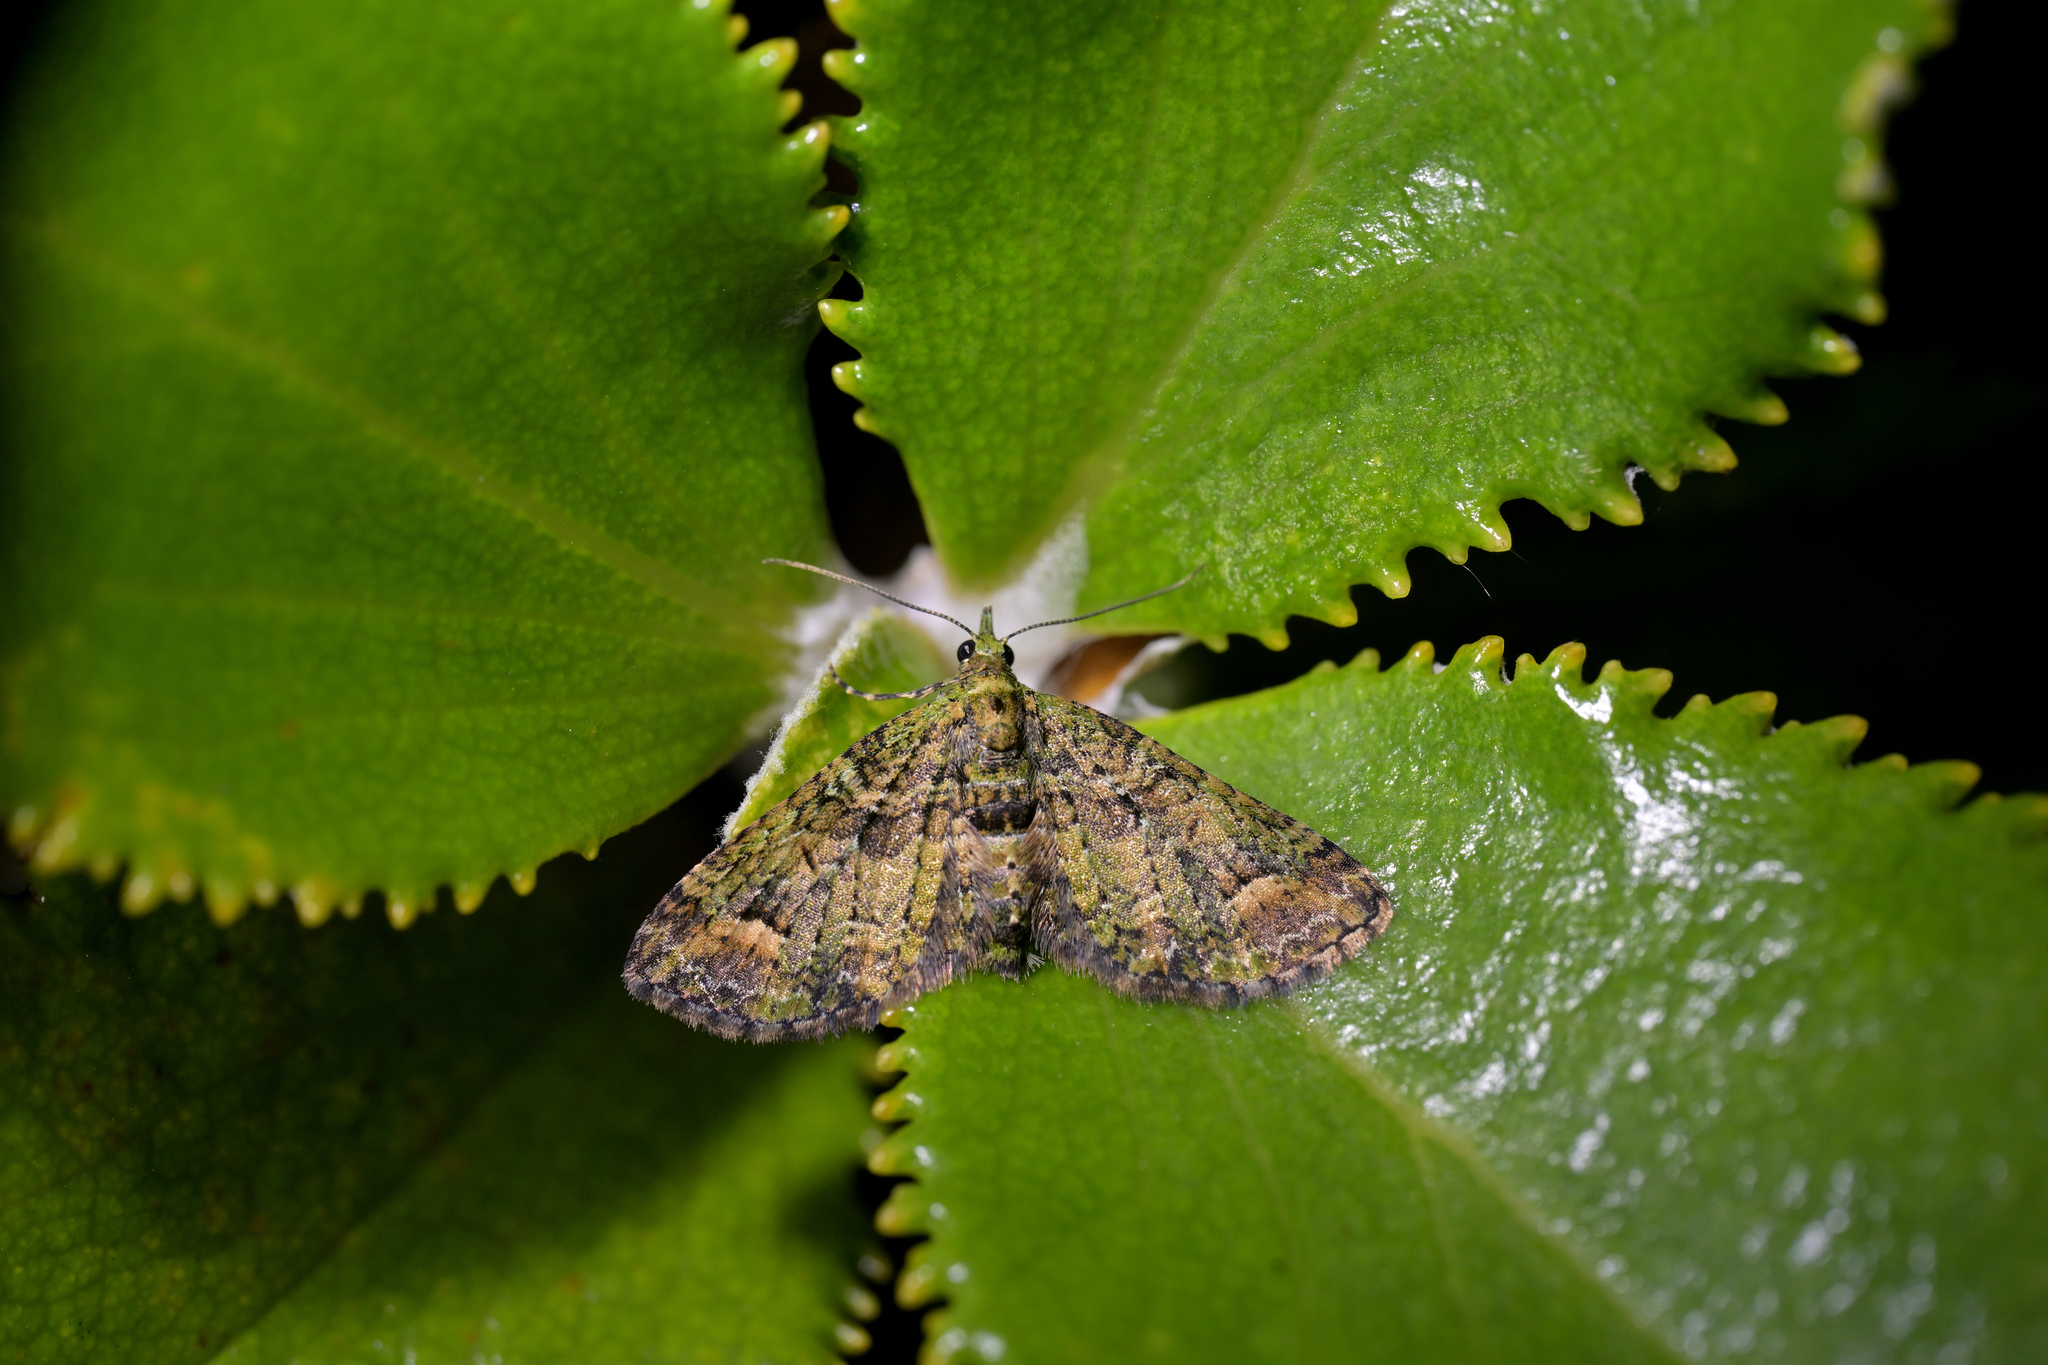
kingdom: Animalia
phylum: Arthropoda
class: Insecta
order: Lepidoptera
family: Geometridae
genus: Idaea
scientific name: Idaea mutanda
